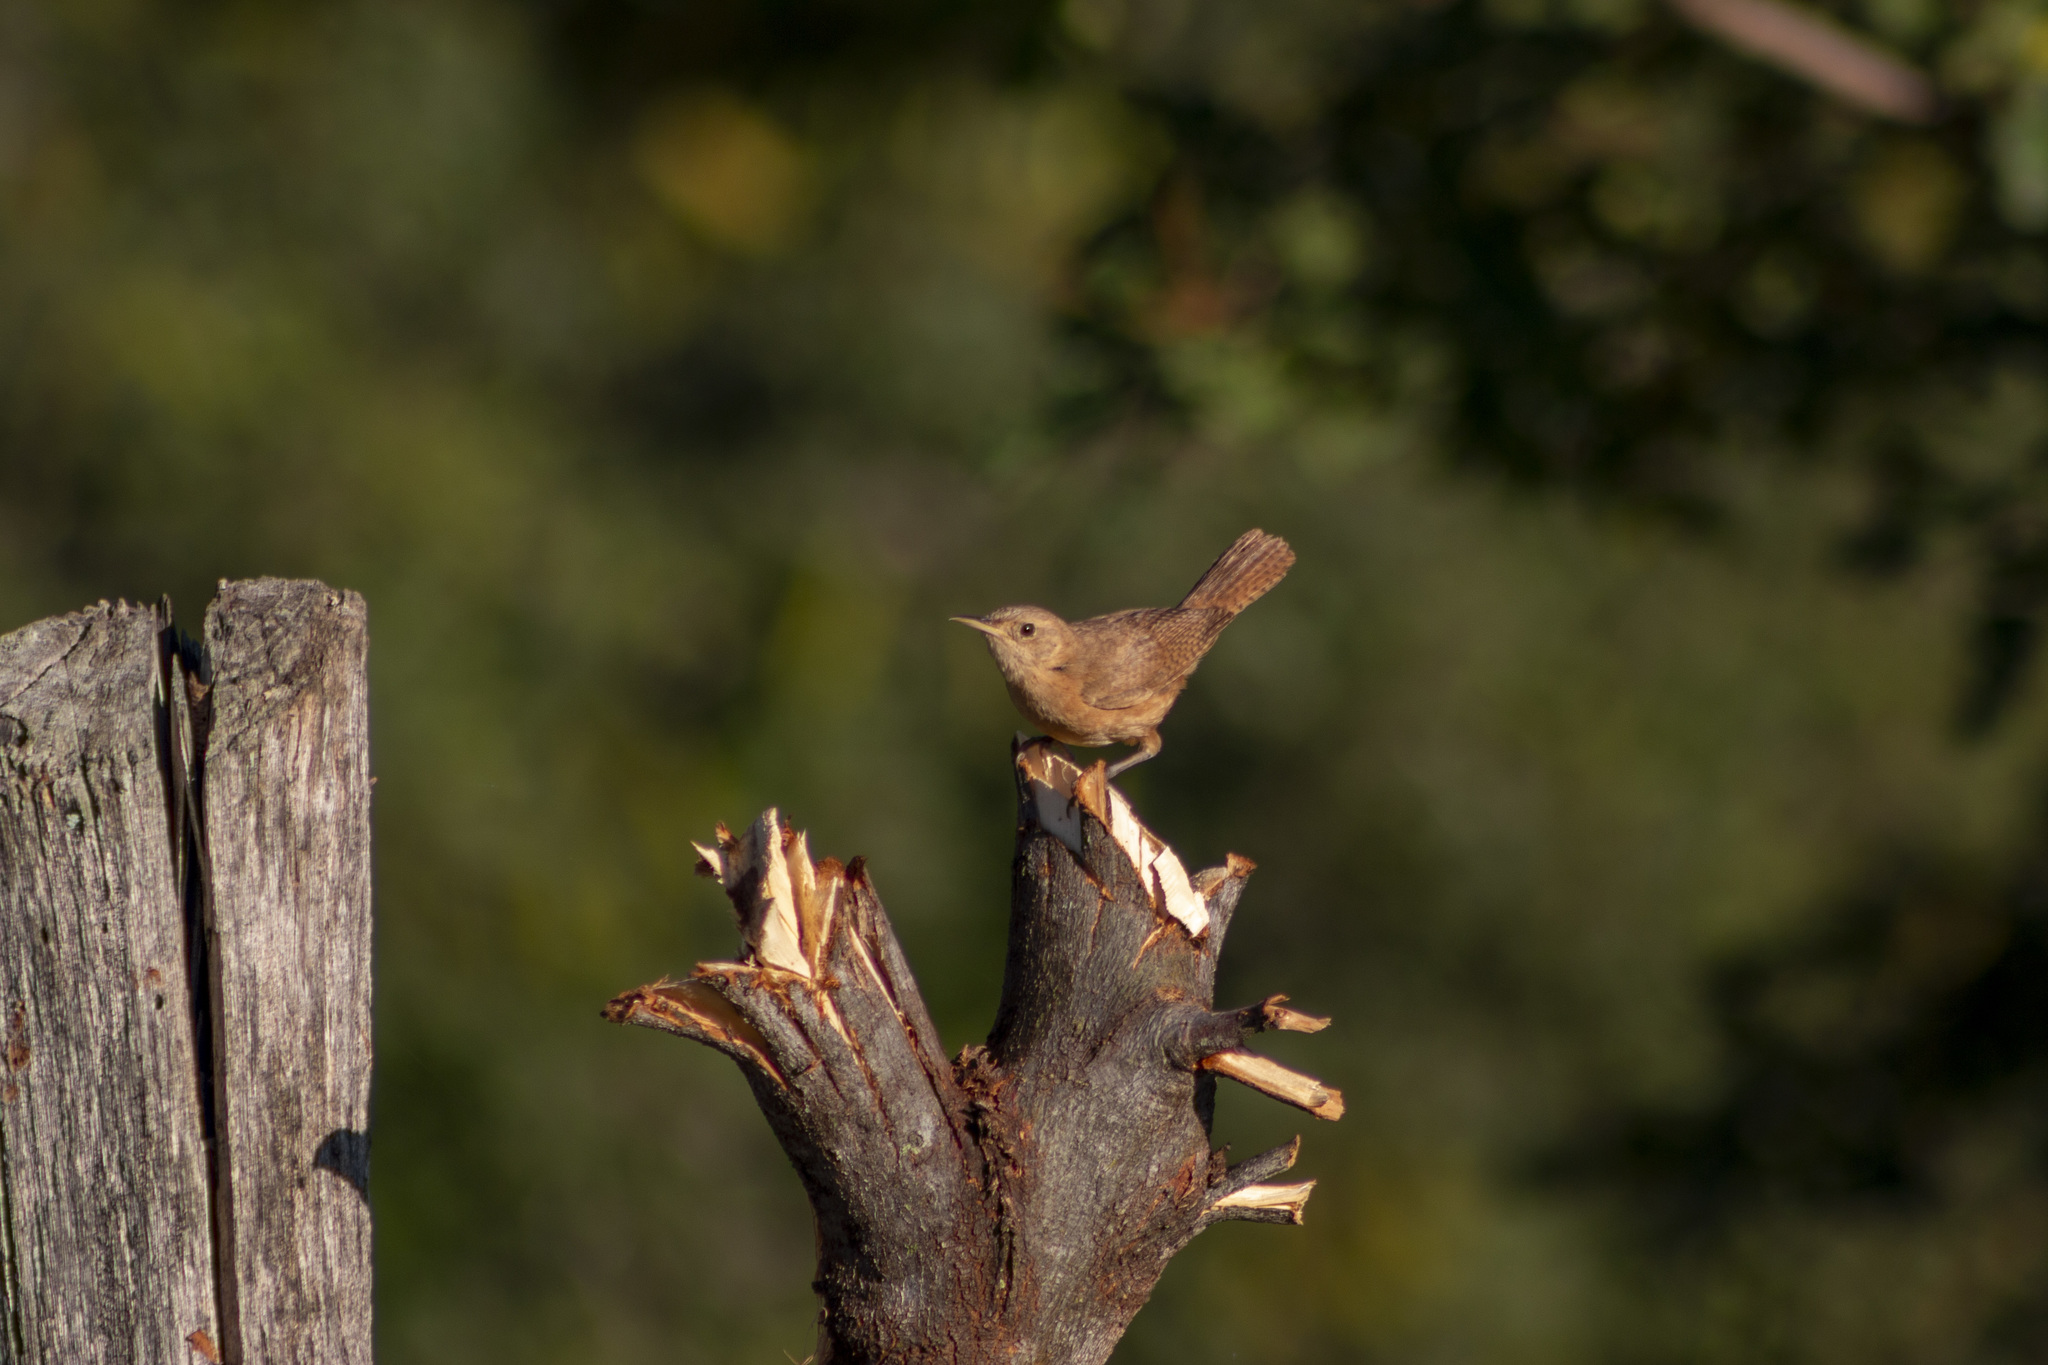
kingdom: Animalia
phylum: Chordata
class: Aves
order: Passeriformes
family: Troglodytidae
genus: Troglodytes
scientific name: Troglodytes aedon
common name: House wren
